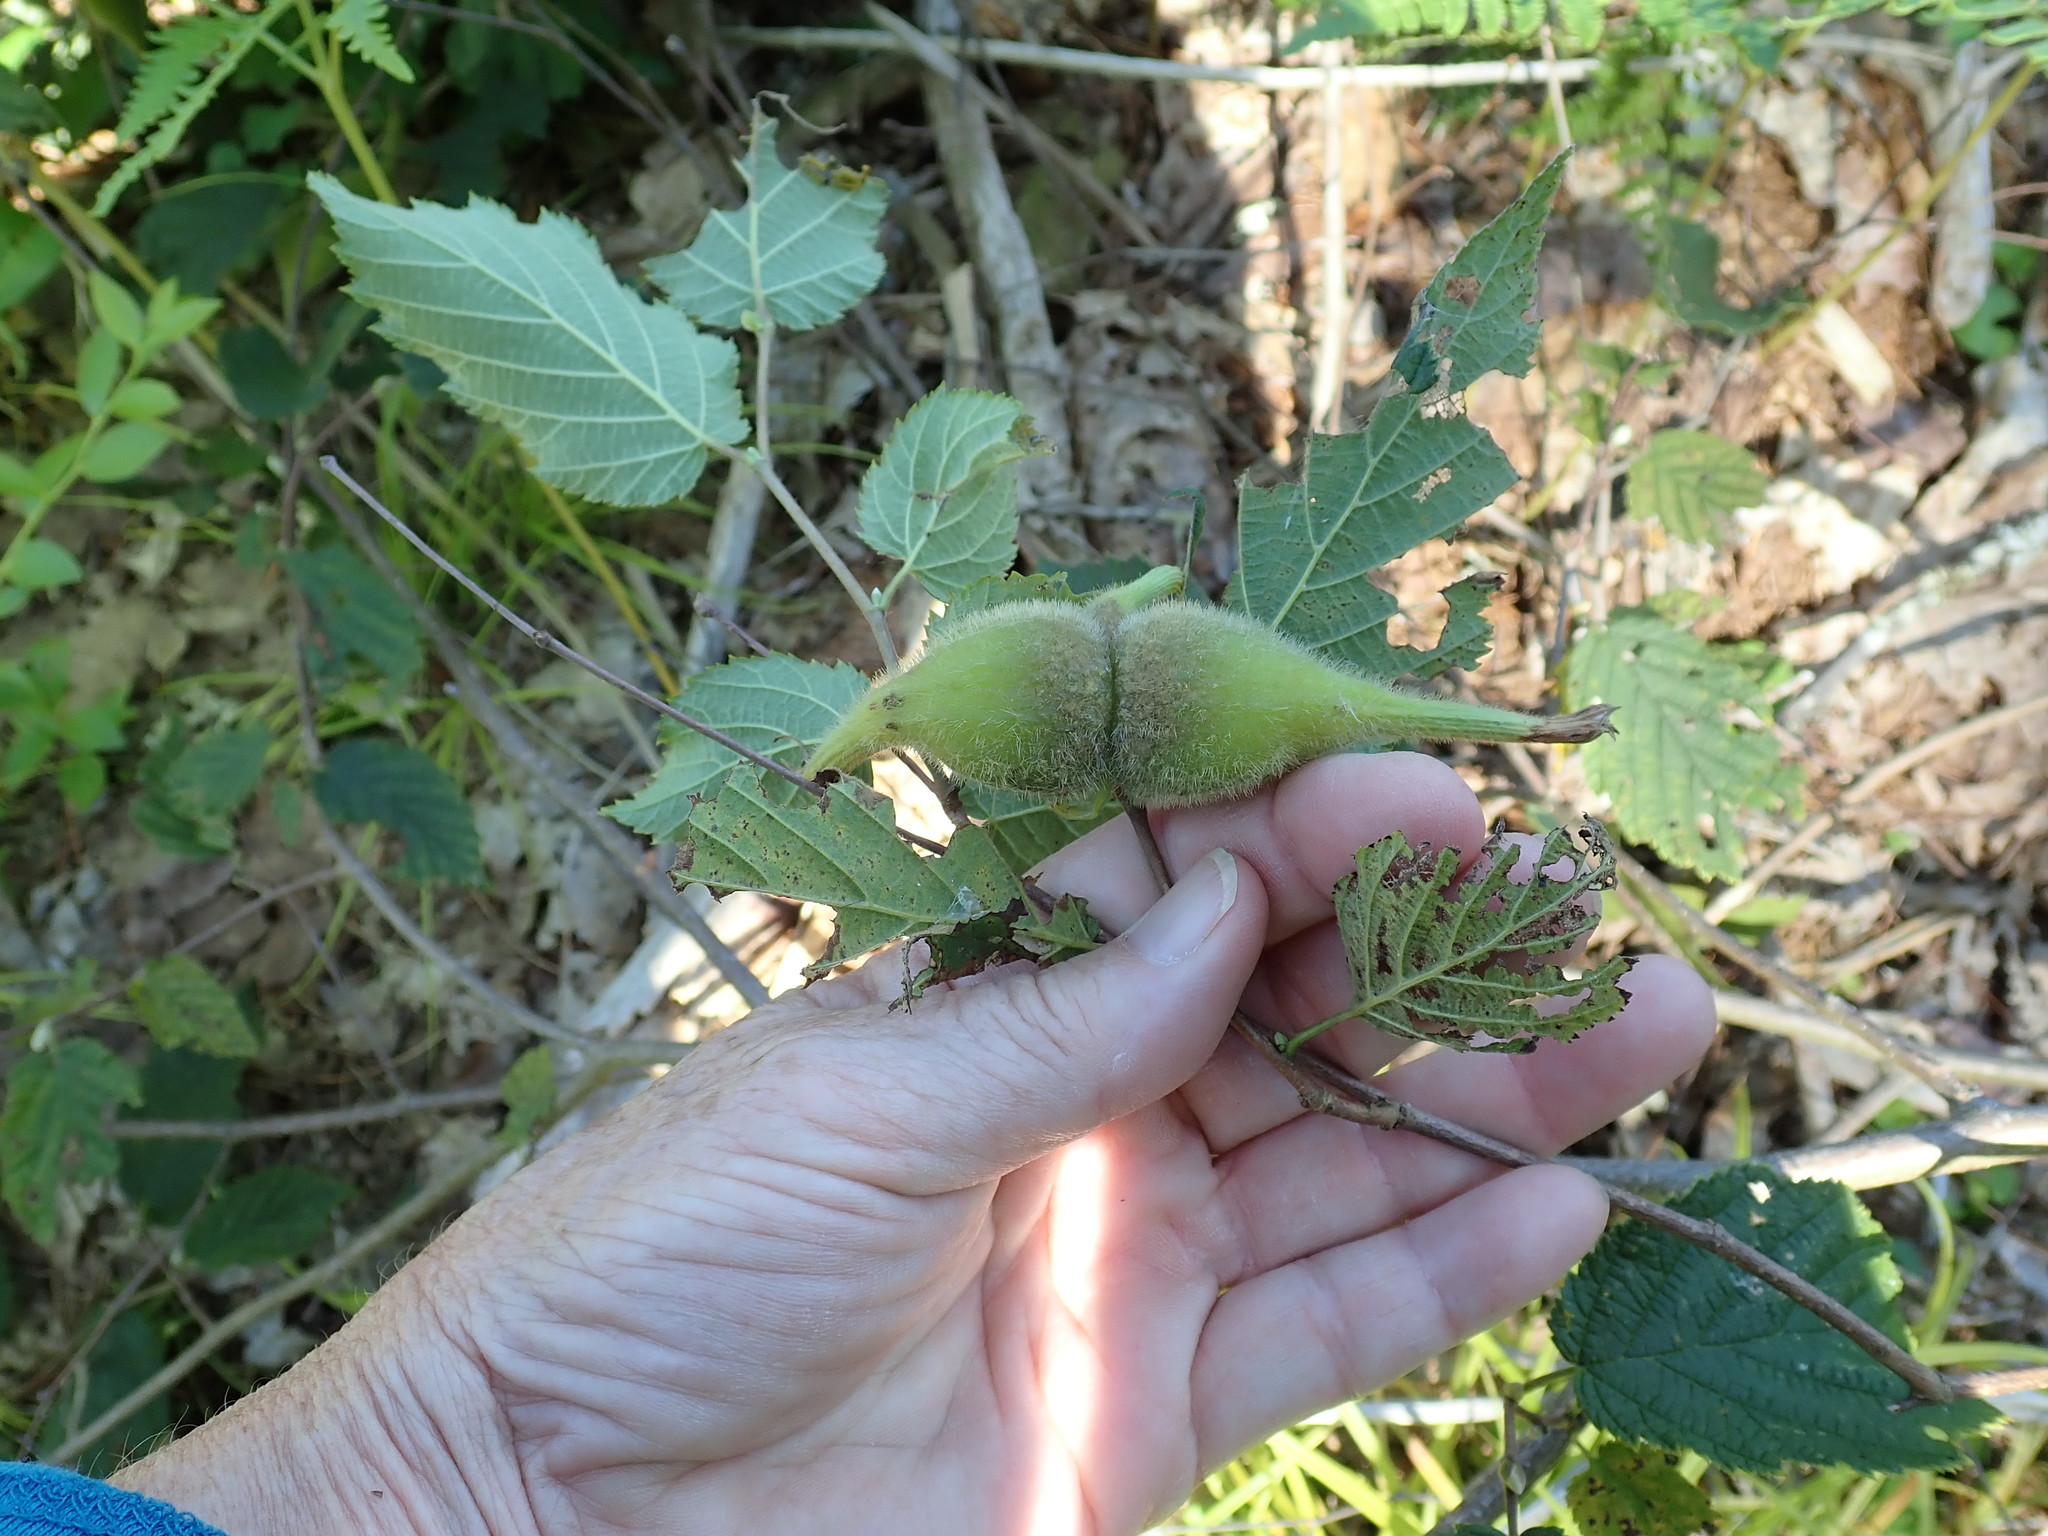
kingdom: Plantae
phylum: Tracheophyta
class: Magnoliopsida
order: Fagales
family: Betulaceae
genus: Corylus
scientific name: Corylus cornuta
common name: Beaked hazel
